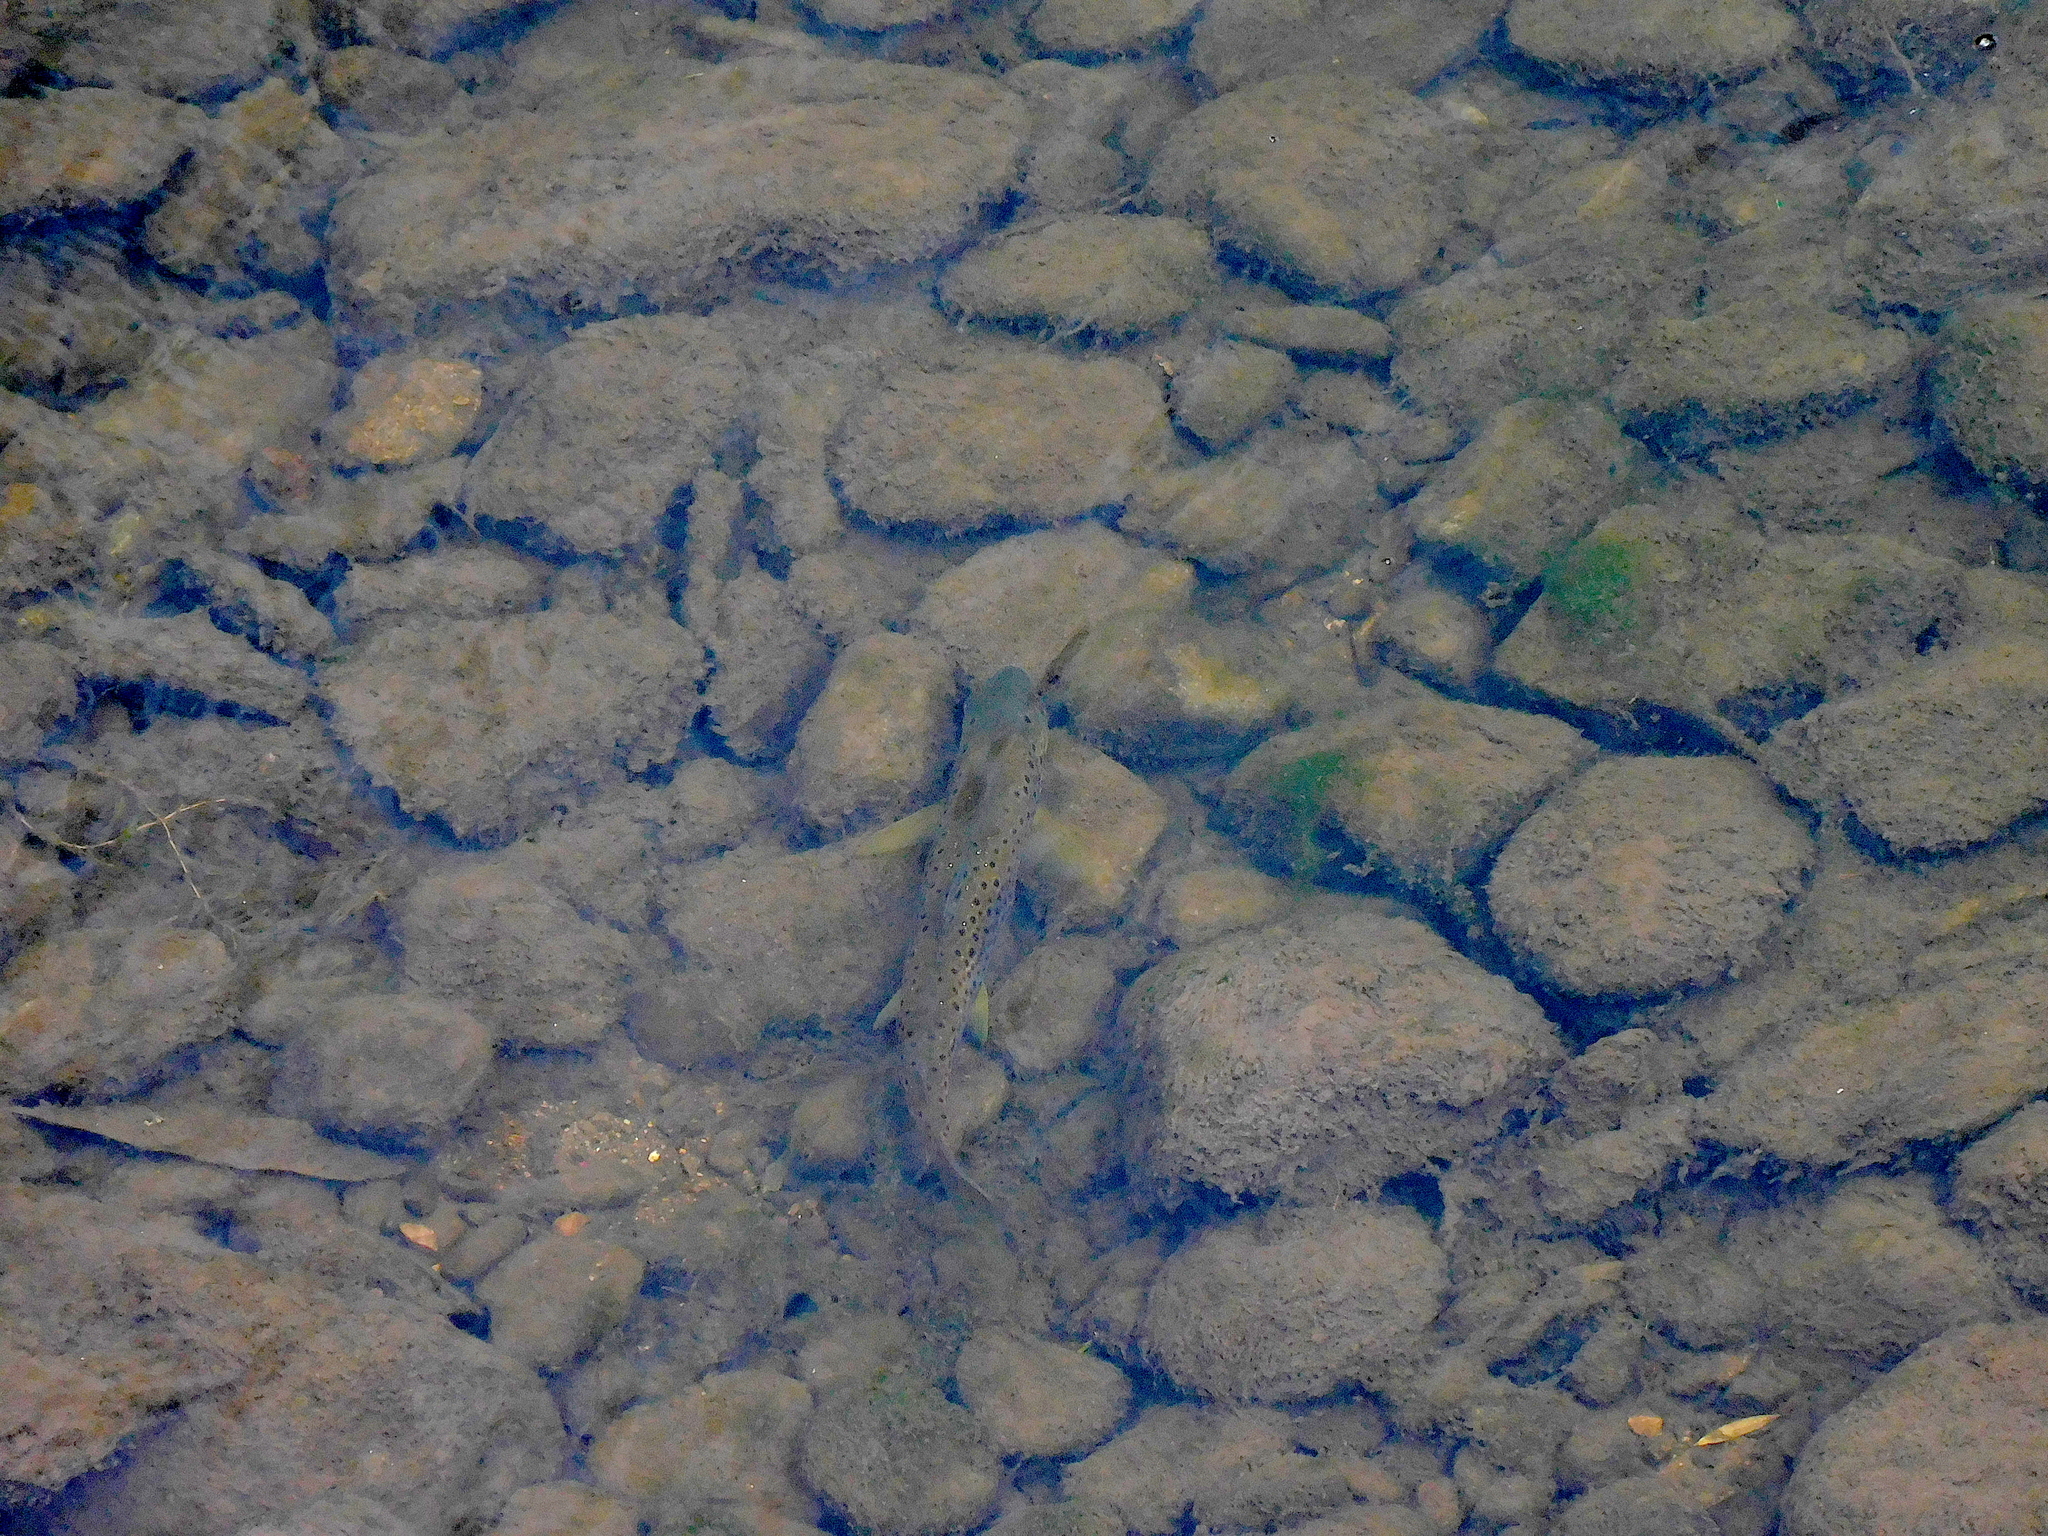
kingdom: Animalia
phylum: Chordata
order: Salmoniformes
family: Salmonidae
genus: Salmo
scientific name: Salmo trutta
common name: Brown trout
